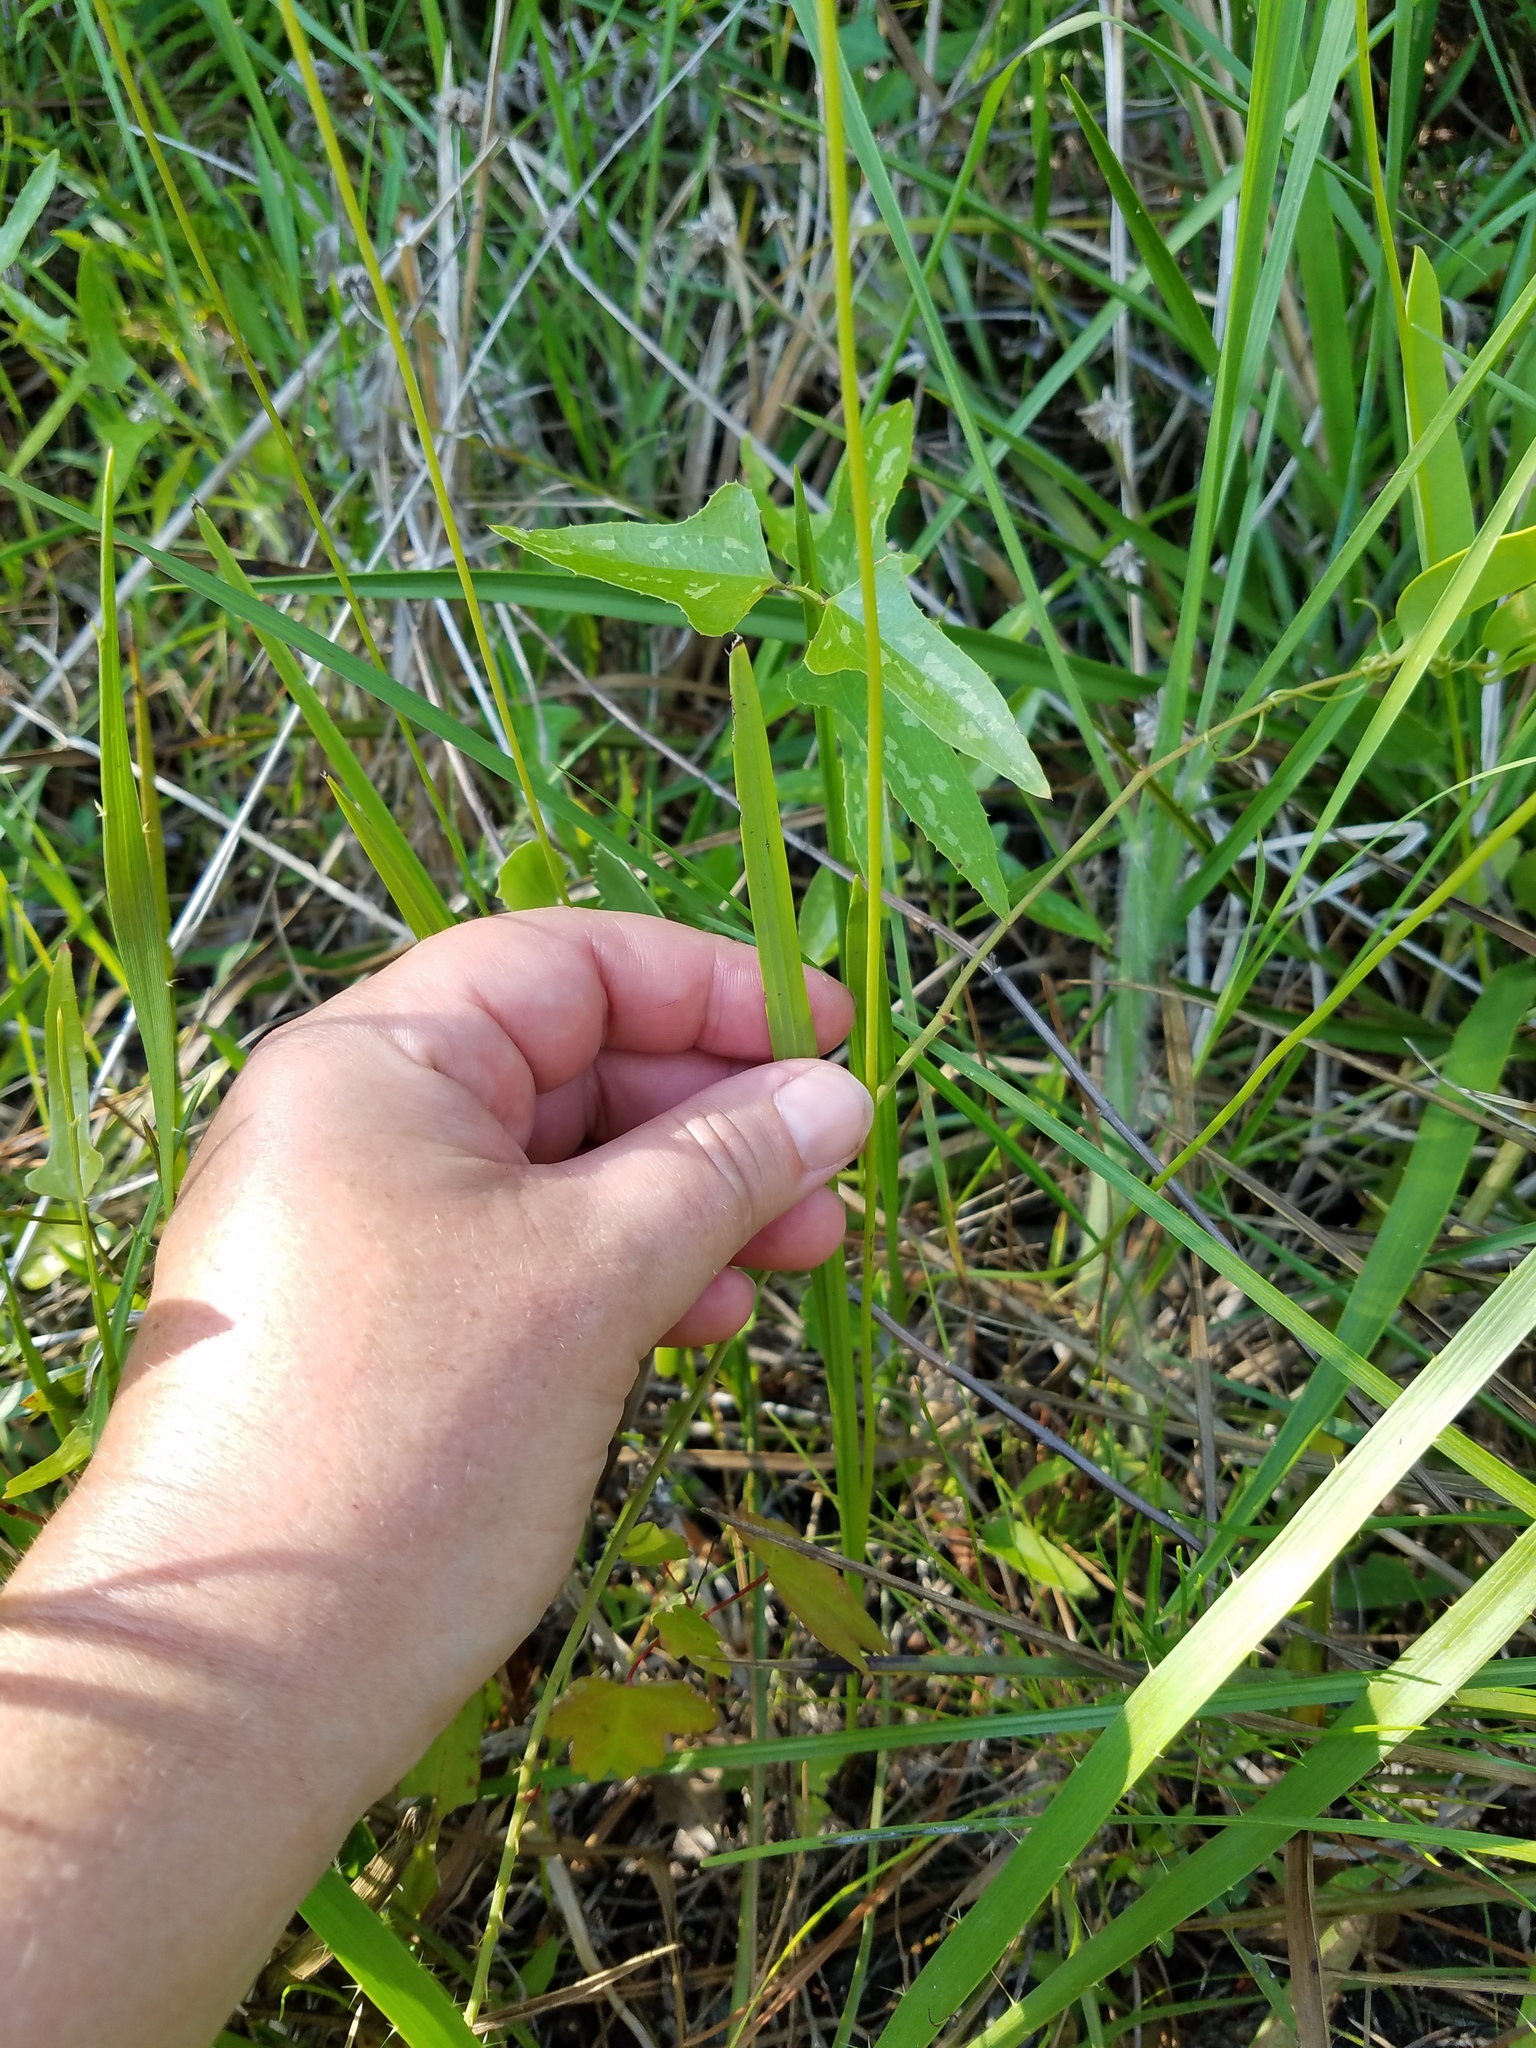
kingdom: Plantae
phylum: Tracheophyta
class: Liliopsida
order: Asparagales
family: Orchidaceae
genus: Calopogon
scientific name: Calopogon tuberosus
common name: Grass-pink
